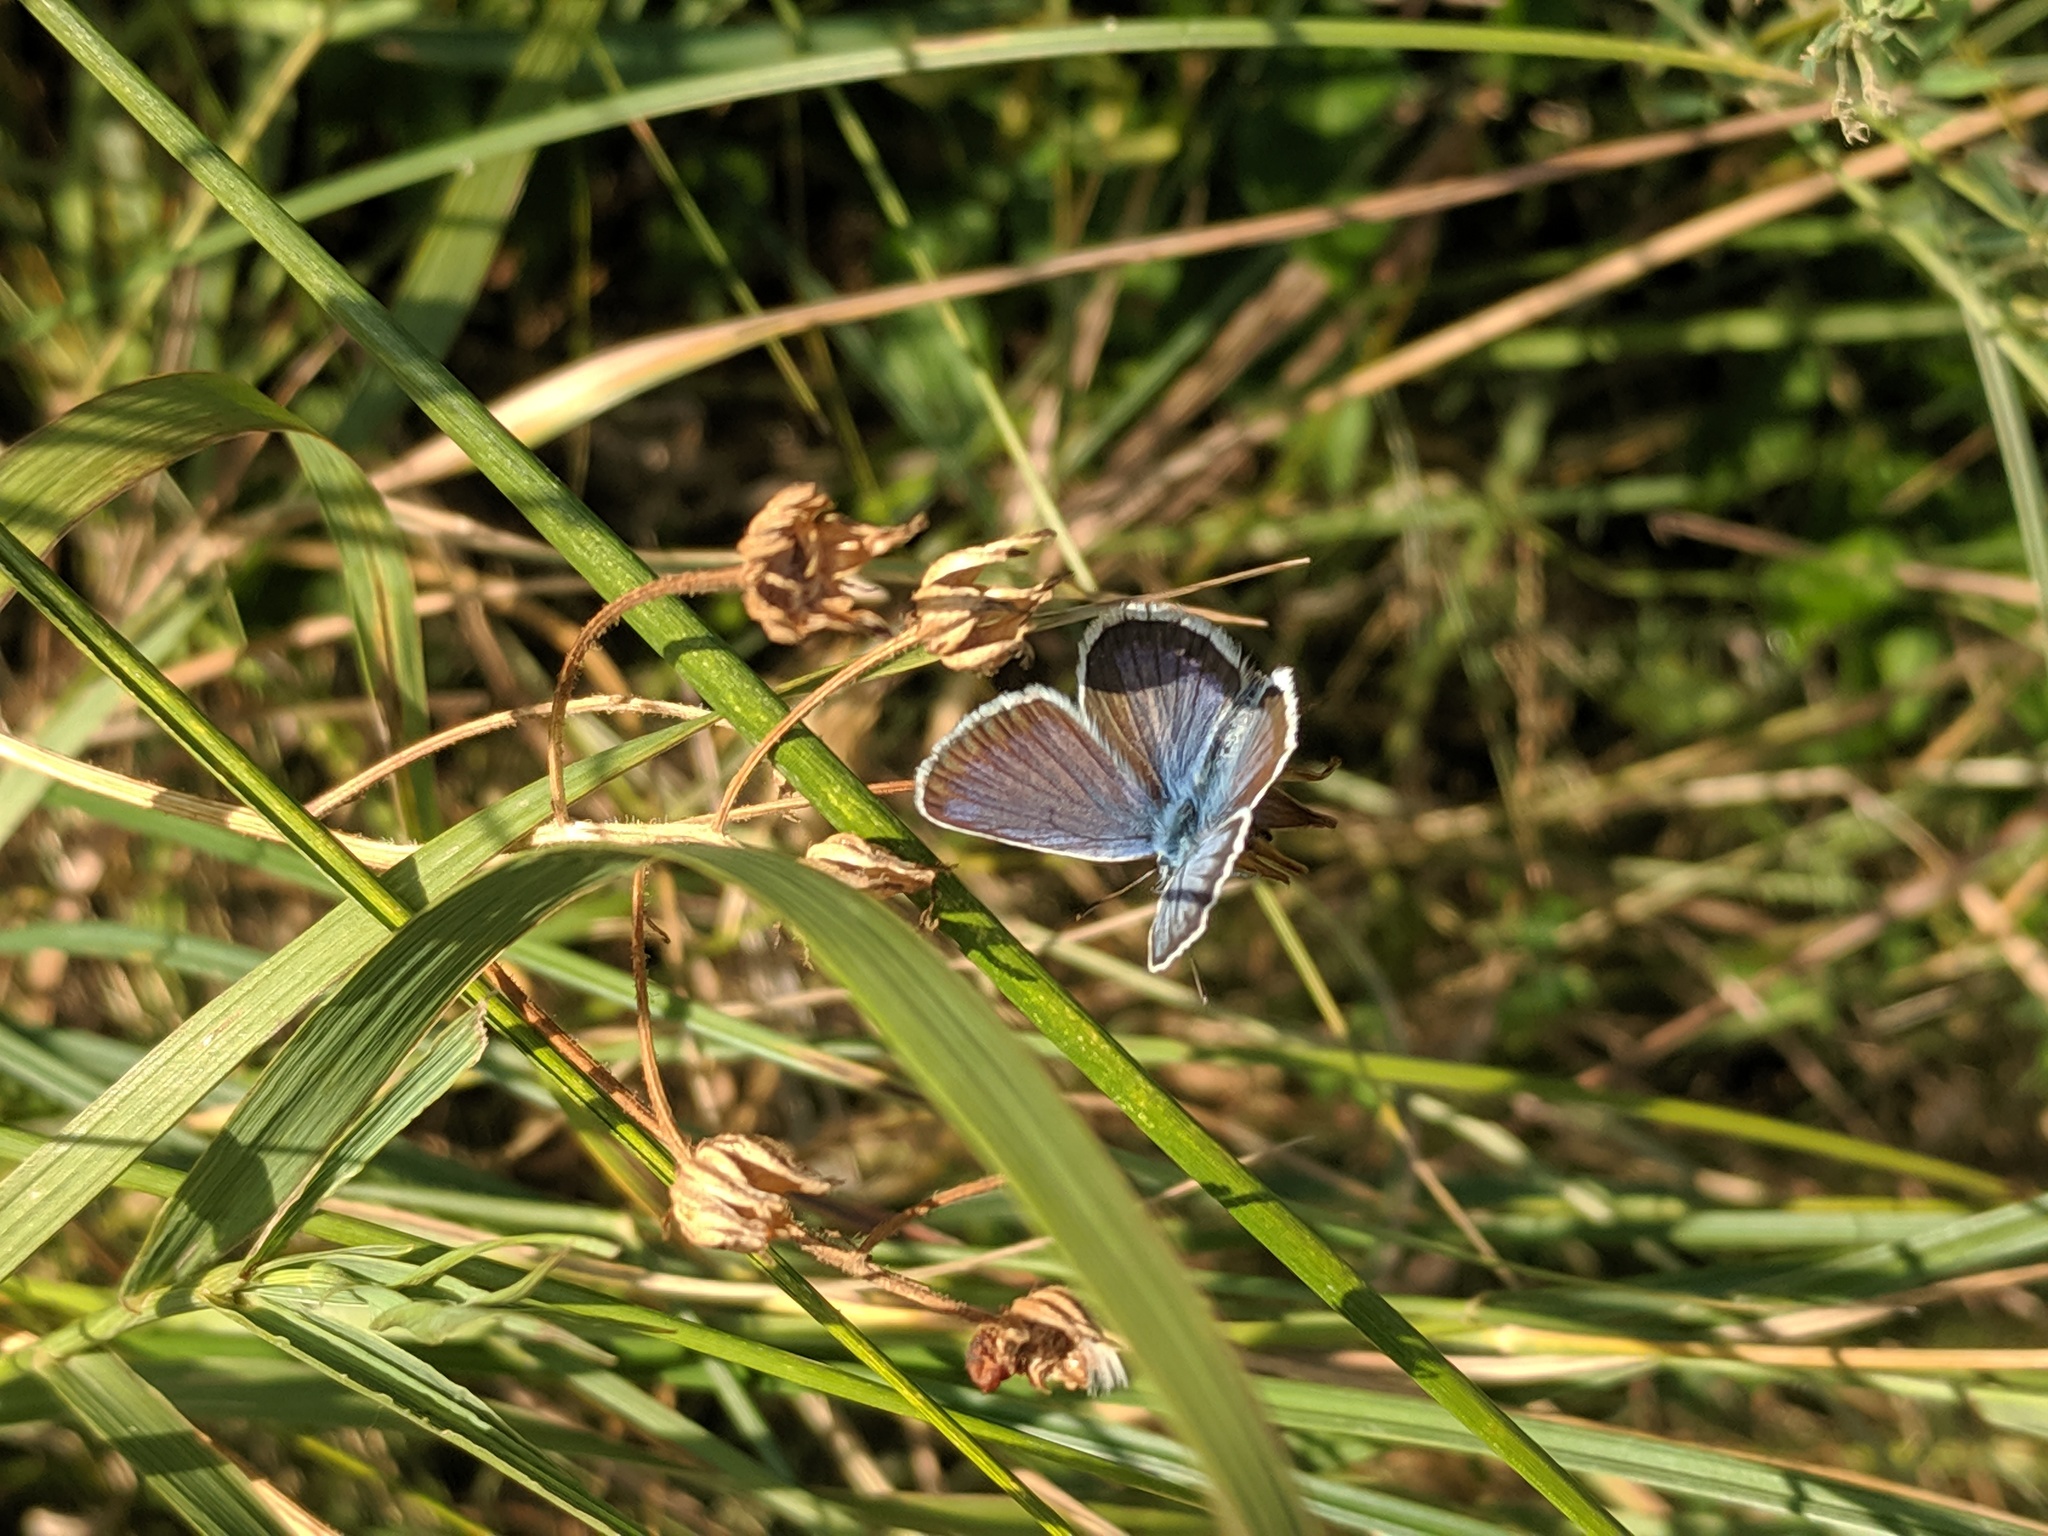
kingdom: Animalia
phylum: Arthropoda
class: Insecta
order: Lepidoptera
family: Lycaenidae
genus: Plebejus
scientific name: Plebejus argus
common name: Silver-studded blue
